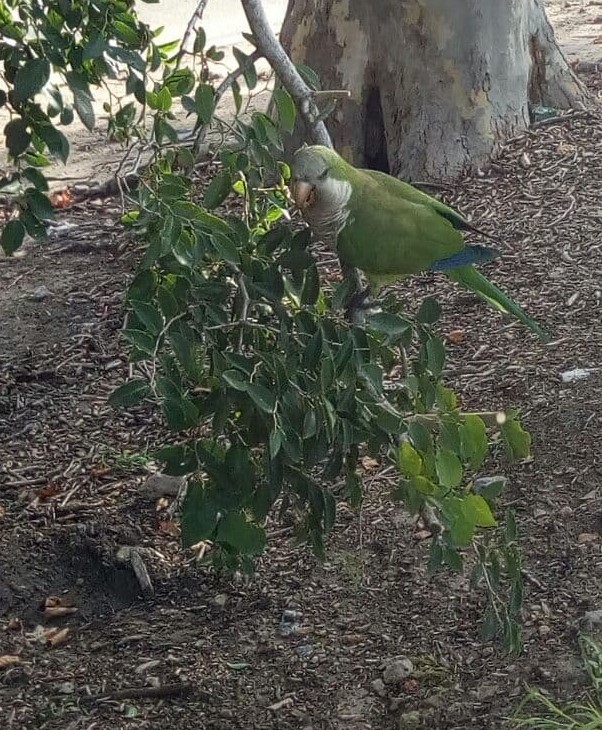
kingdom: Animalia
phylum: Chordata
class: Aves
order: Psittaciformes
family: Psittacidae
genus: Myiopsitta
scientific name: Myiopsitta monachus
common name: Monk parakeet
